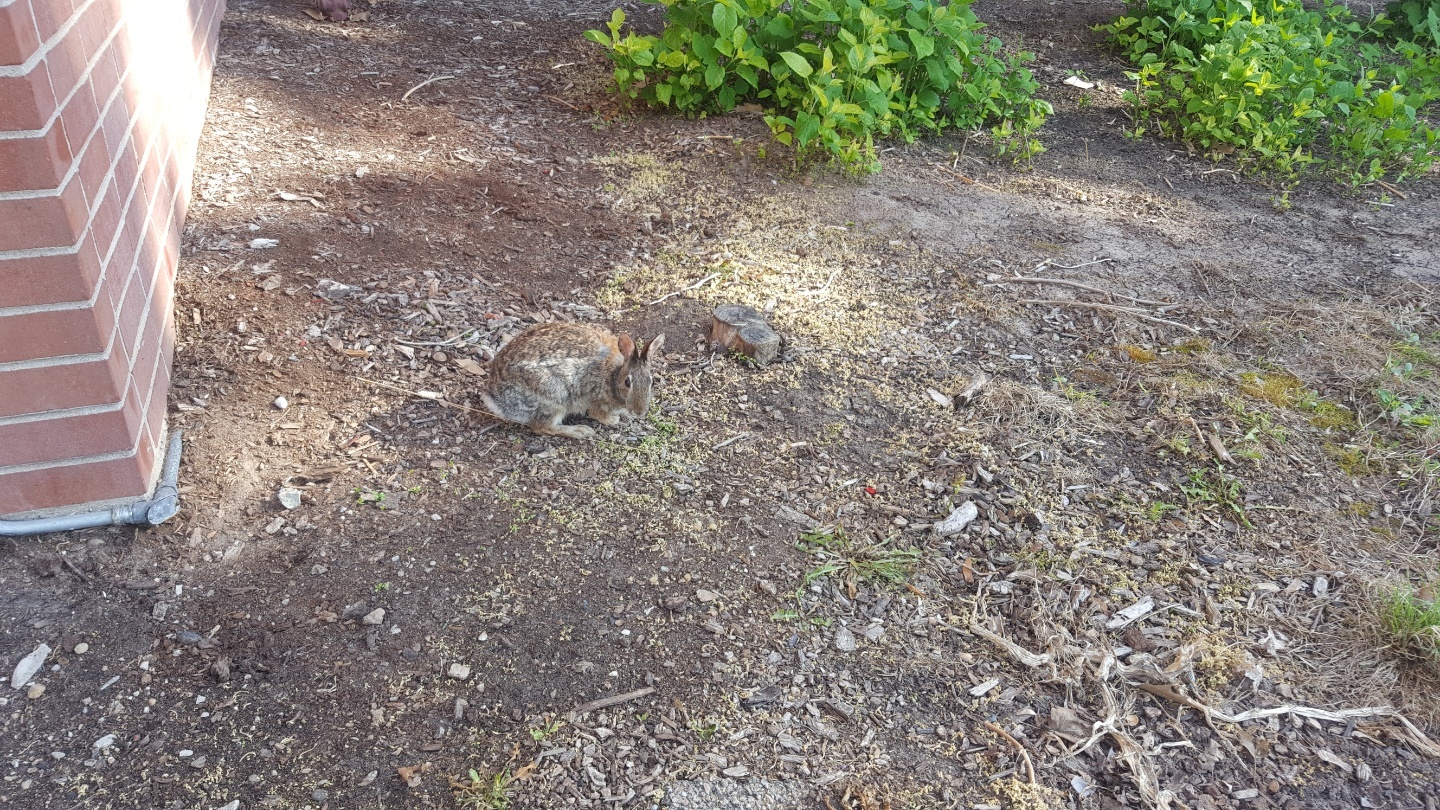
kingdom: Animalia
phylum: Chordata
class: Mammalia
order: Lagomorpha
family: Leporidae
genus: Sylvilagus
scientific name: Sylvilagus floridanus
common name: Eastern cottontail
